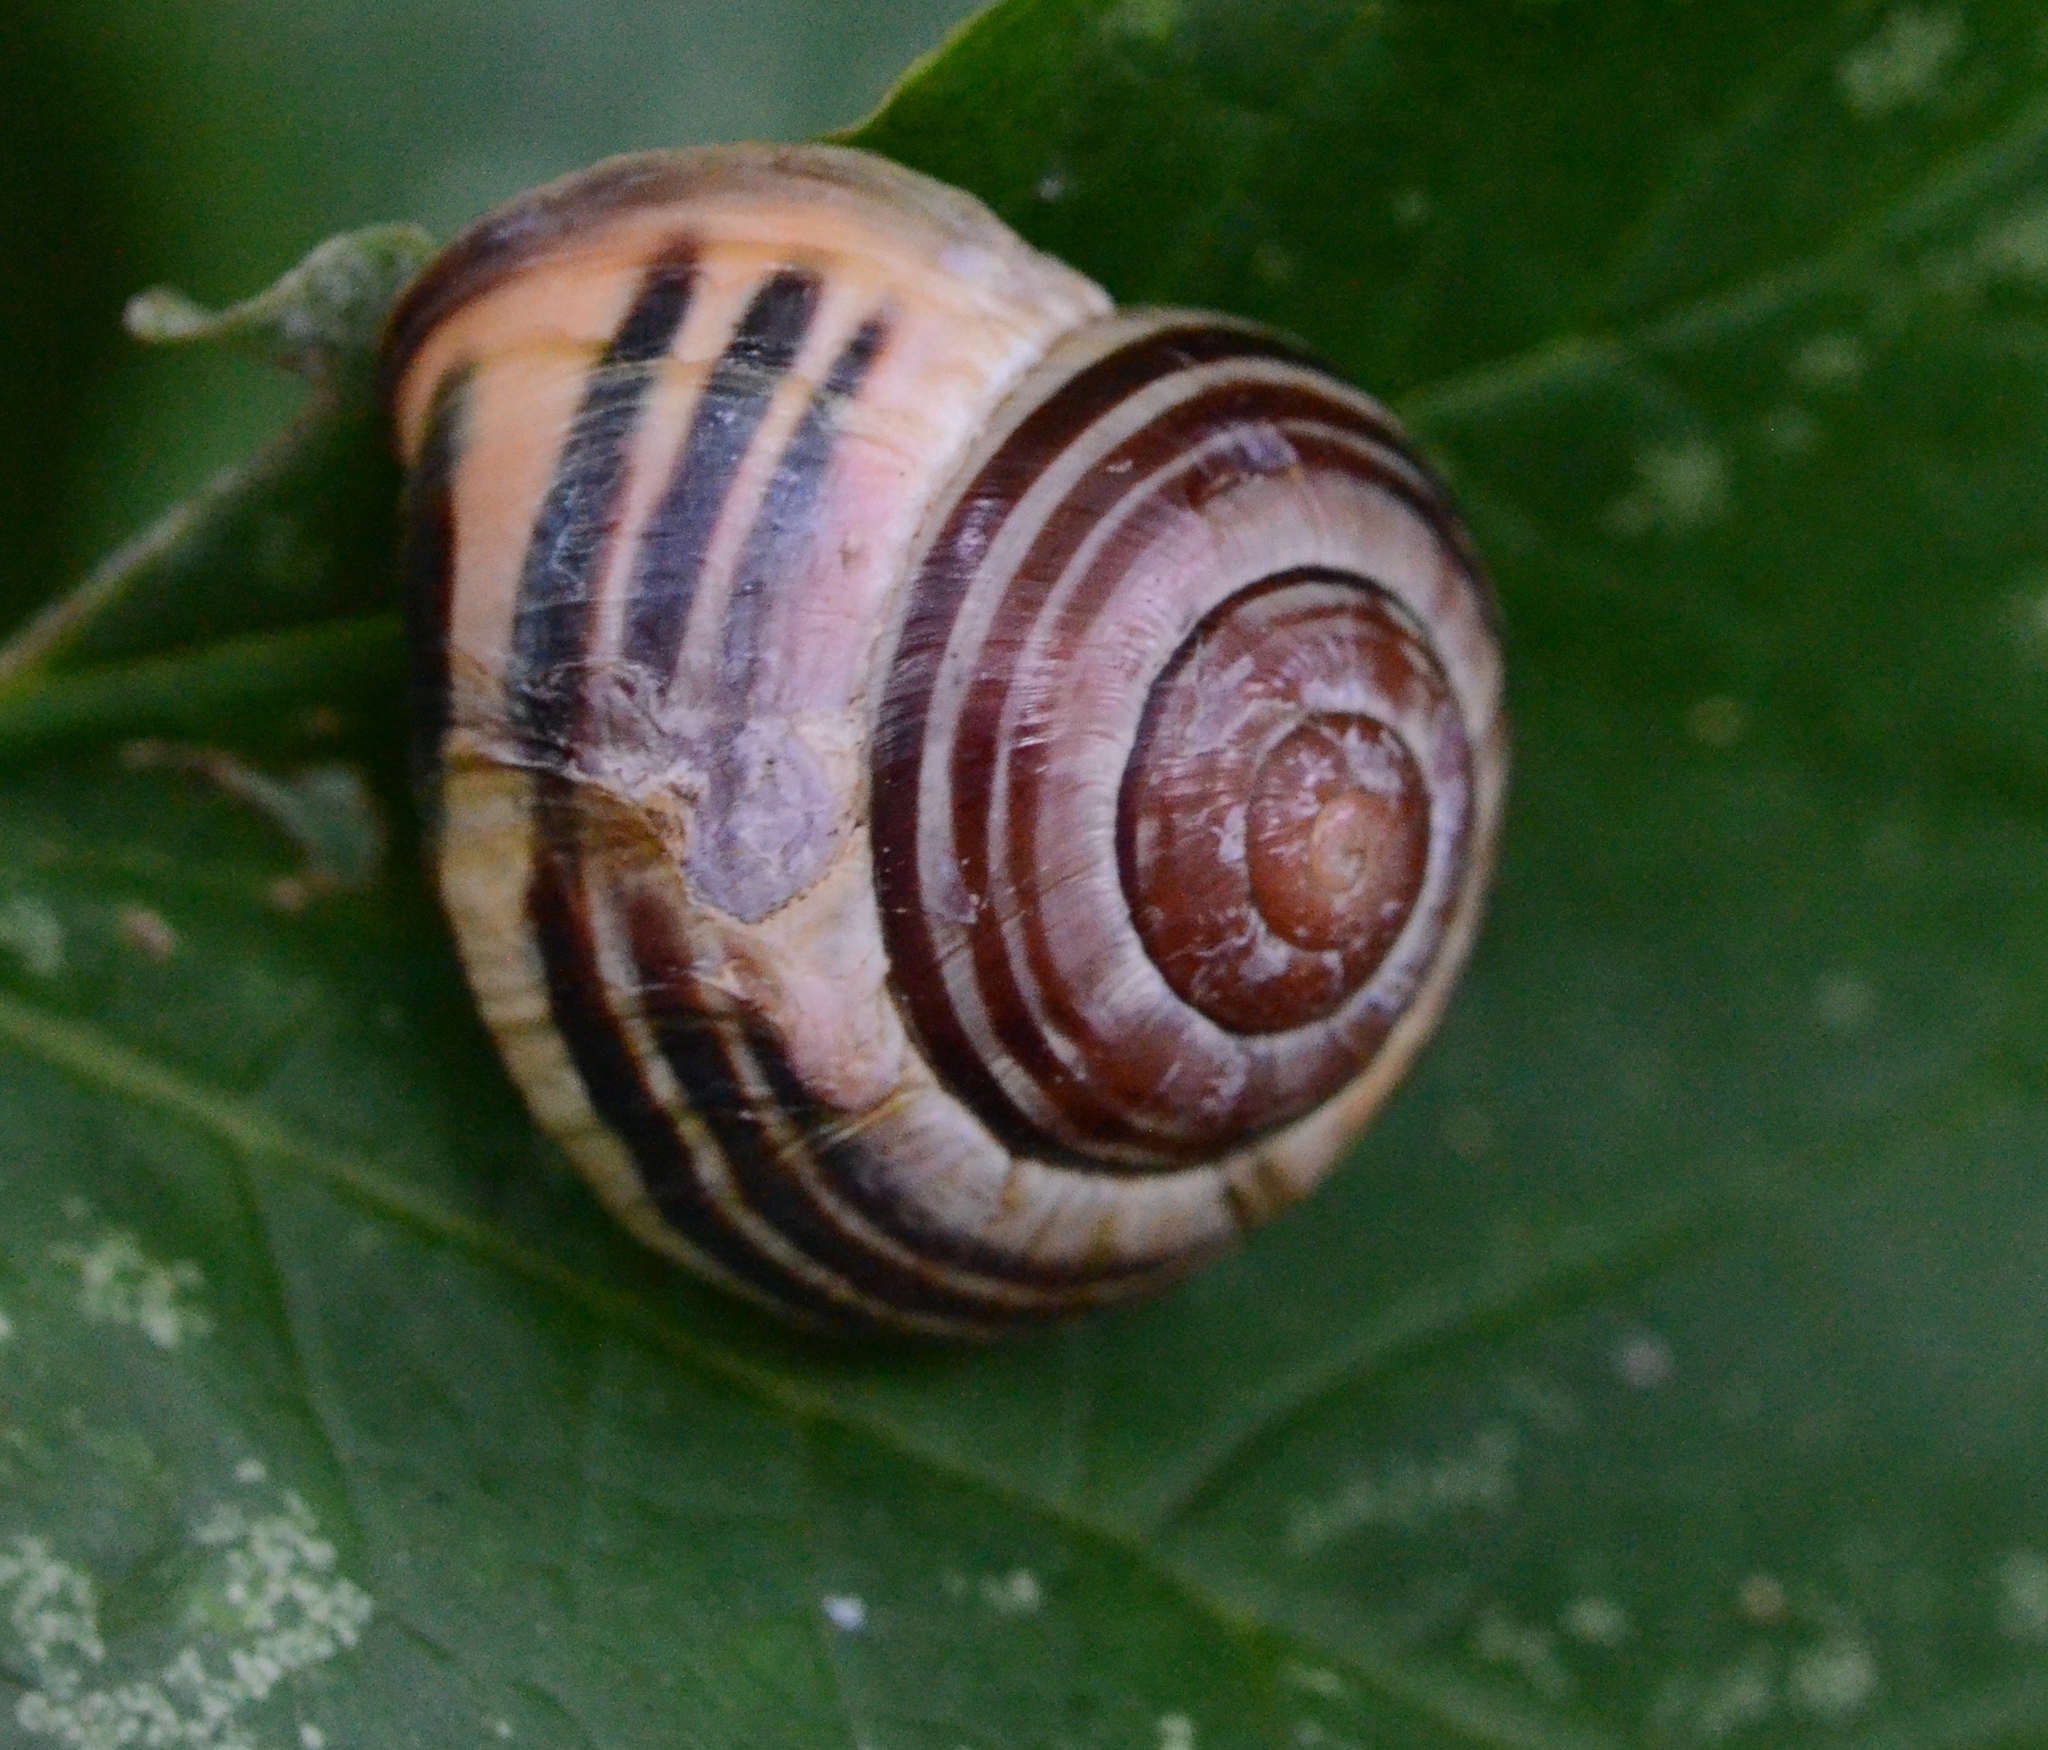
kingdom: Animalia
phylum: Mollusca
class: Gastropoda
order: Stylommatophora
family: Helicidae
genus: Cepaea
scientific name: Cepaea nemoralis
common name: Grovesnail
